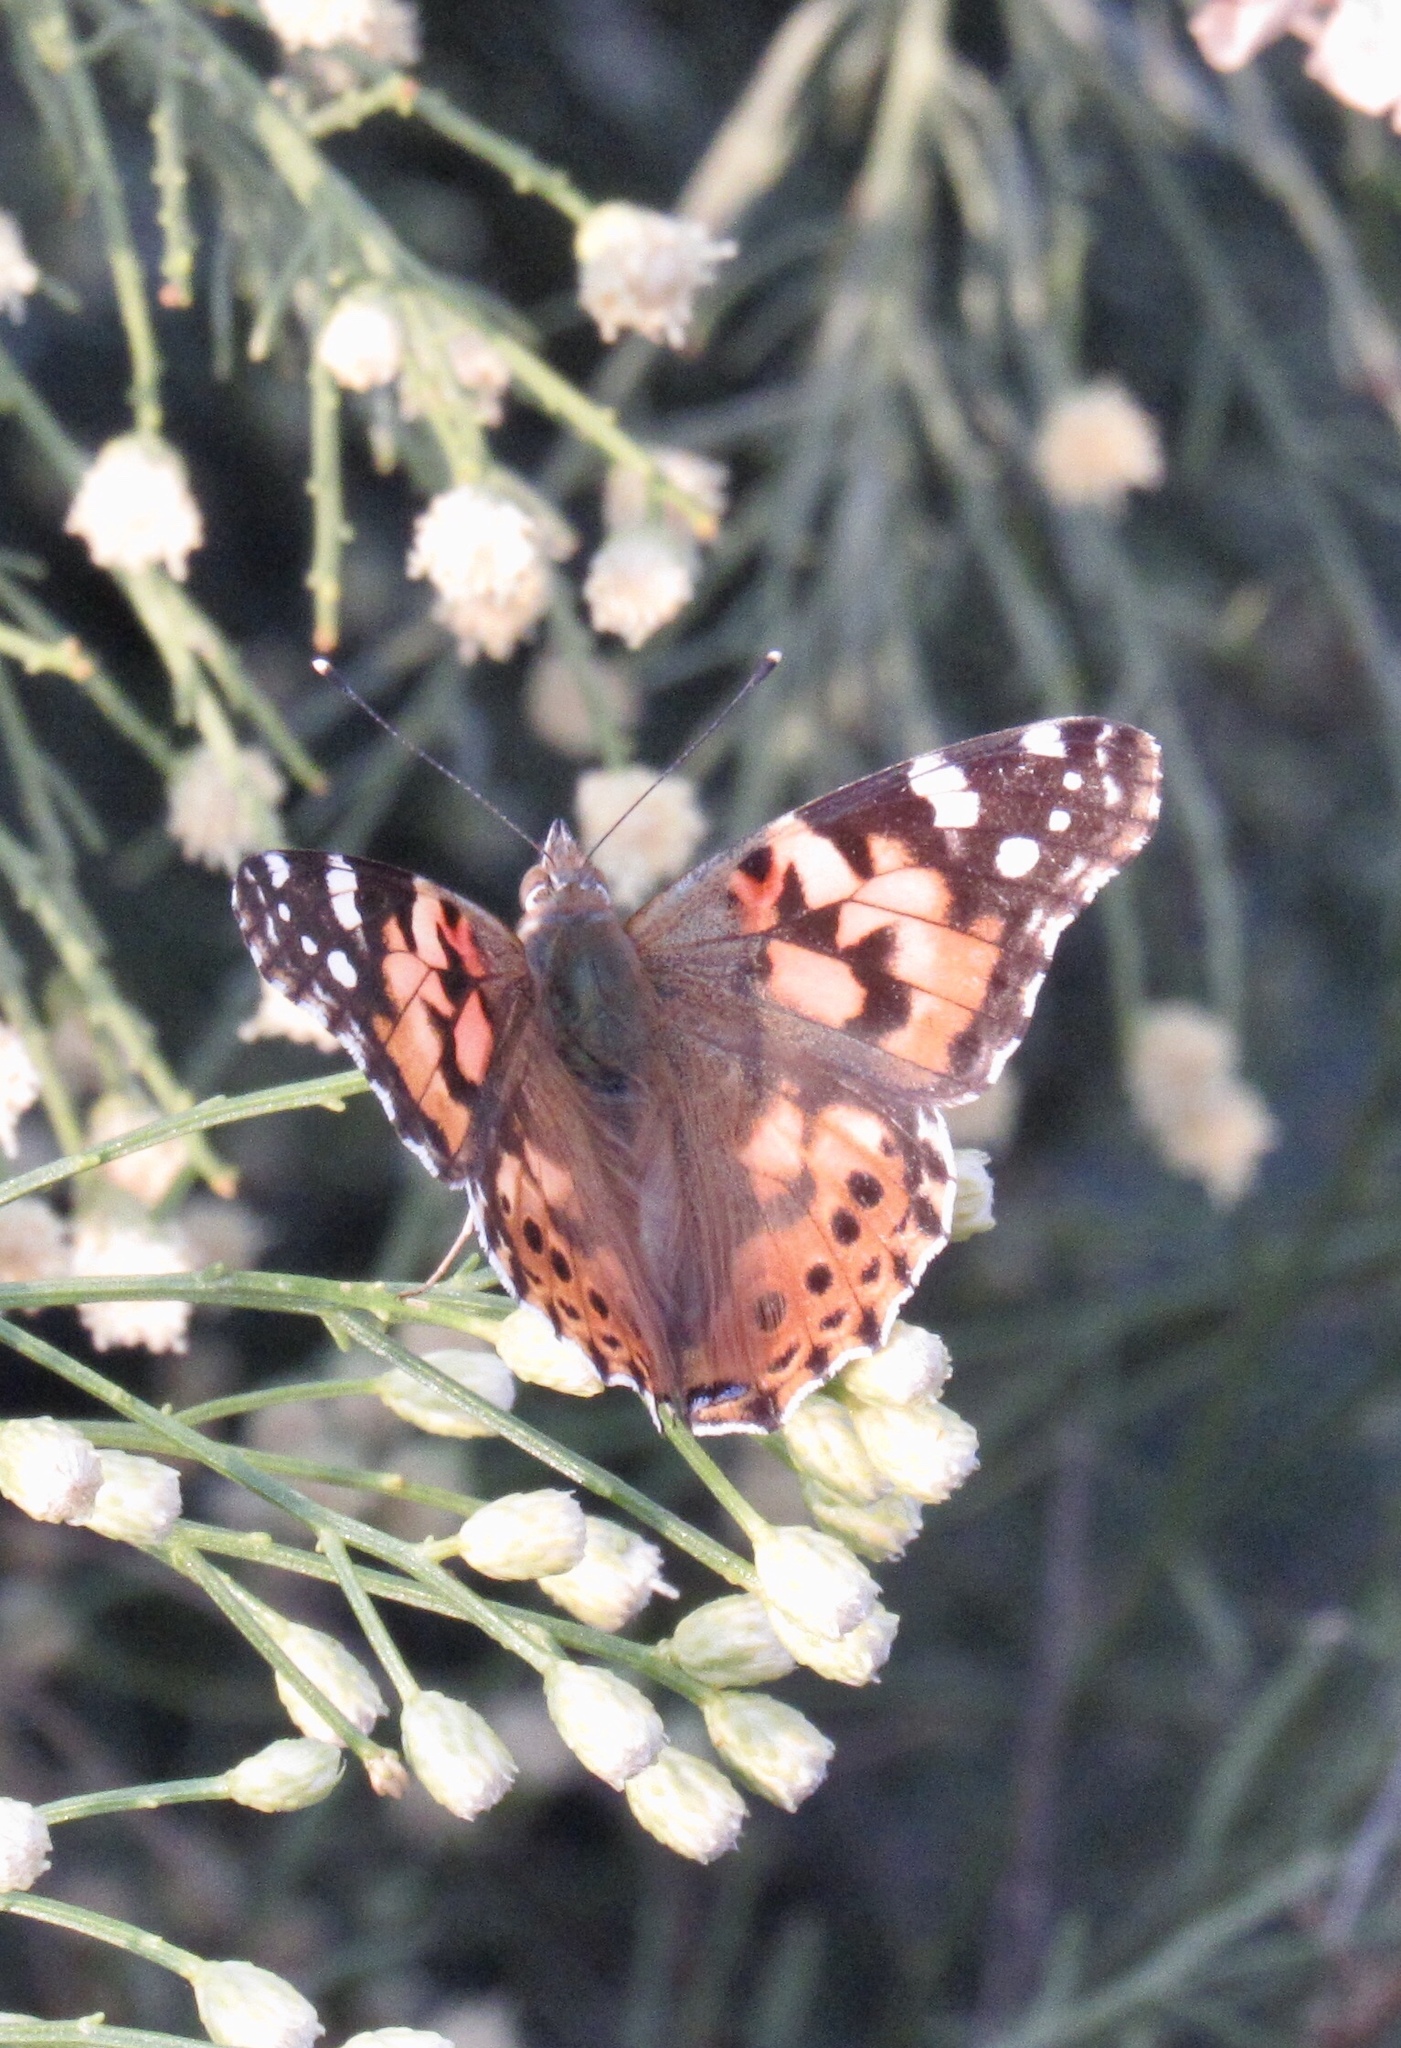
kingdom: Animalia
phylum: Arthropoda
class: Insecta
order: Lepidoptera
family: Nymphalidae
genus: Vanessa
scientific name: Vanessa cardui
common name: Painted lady
